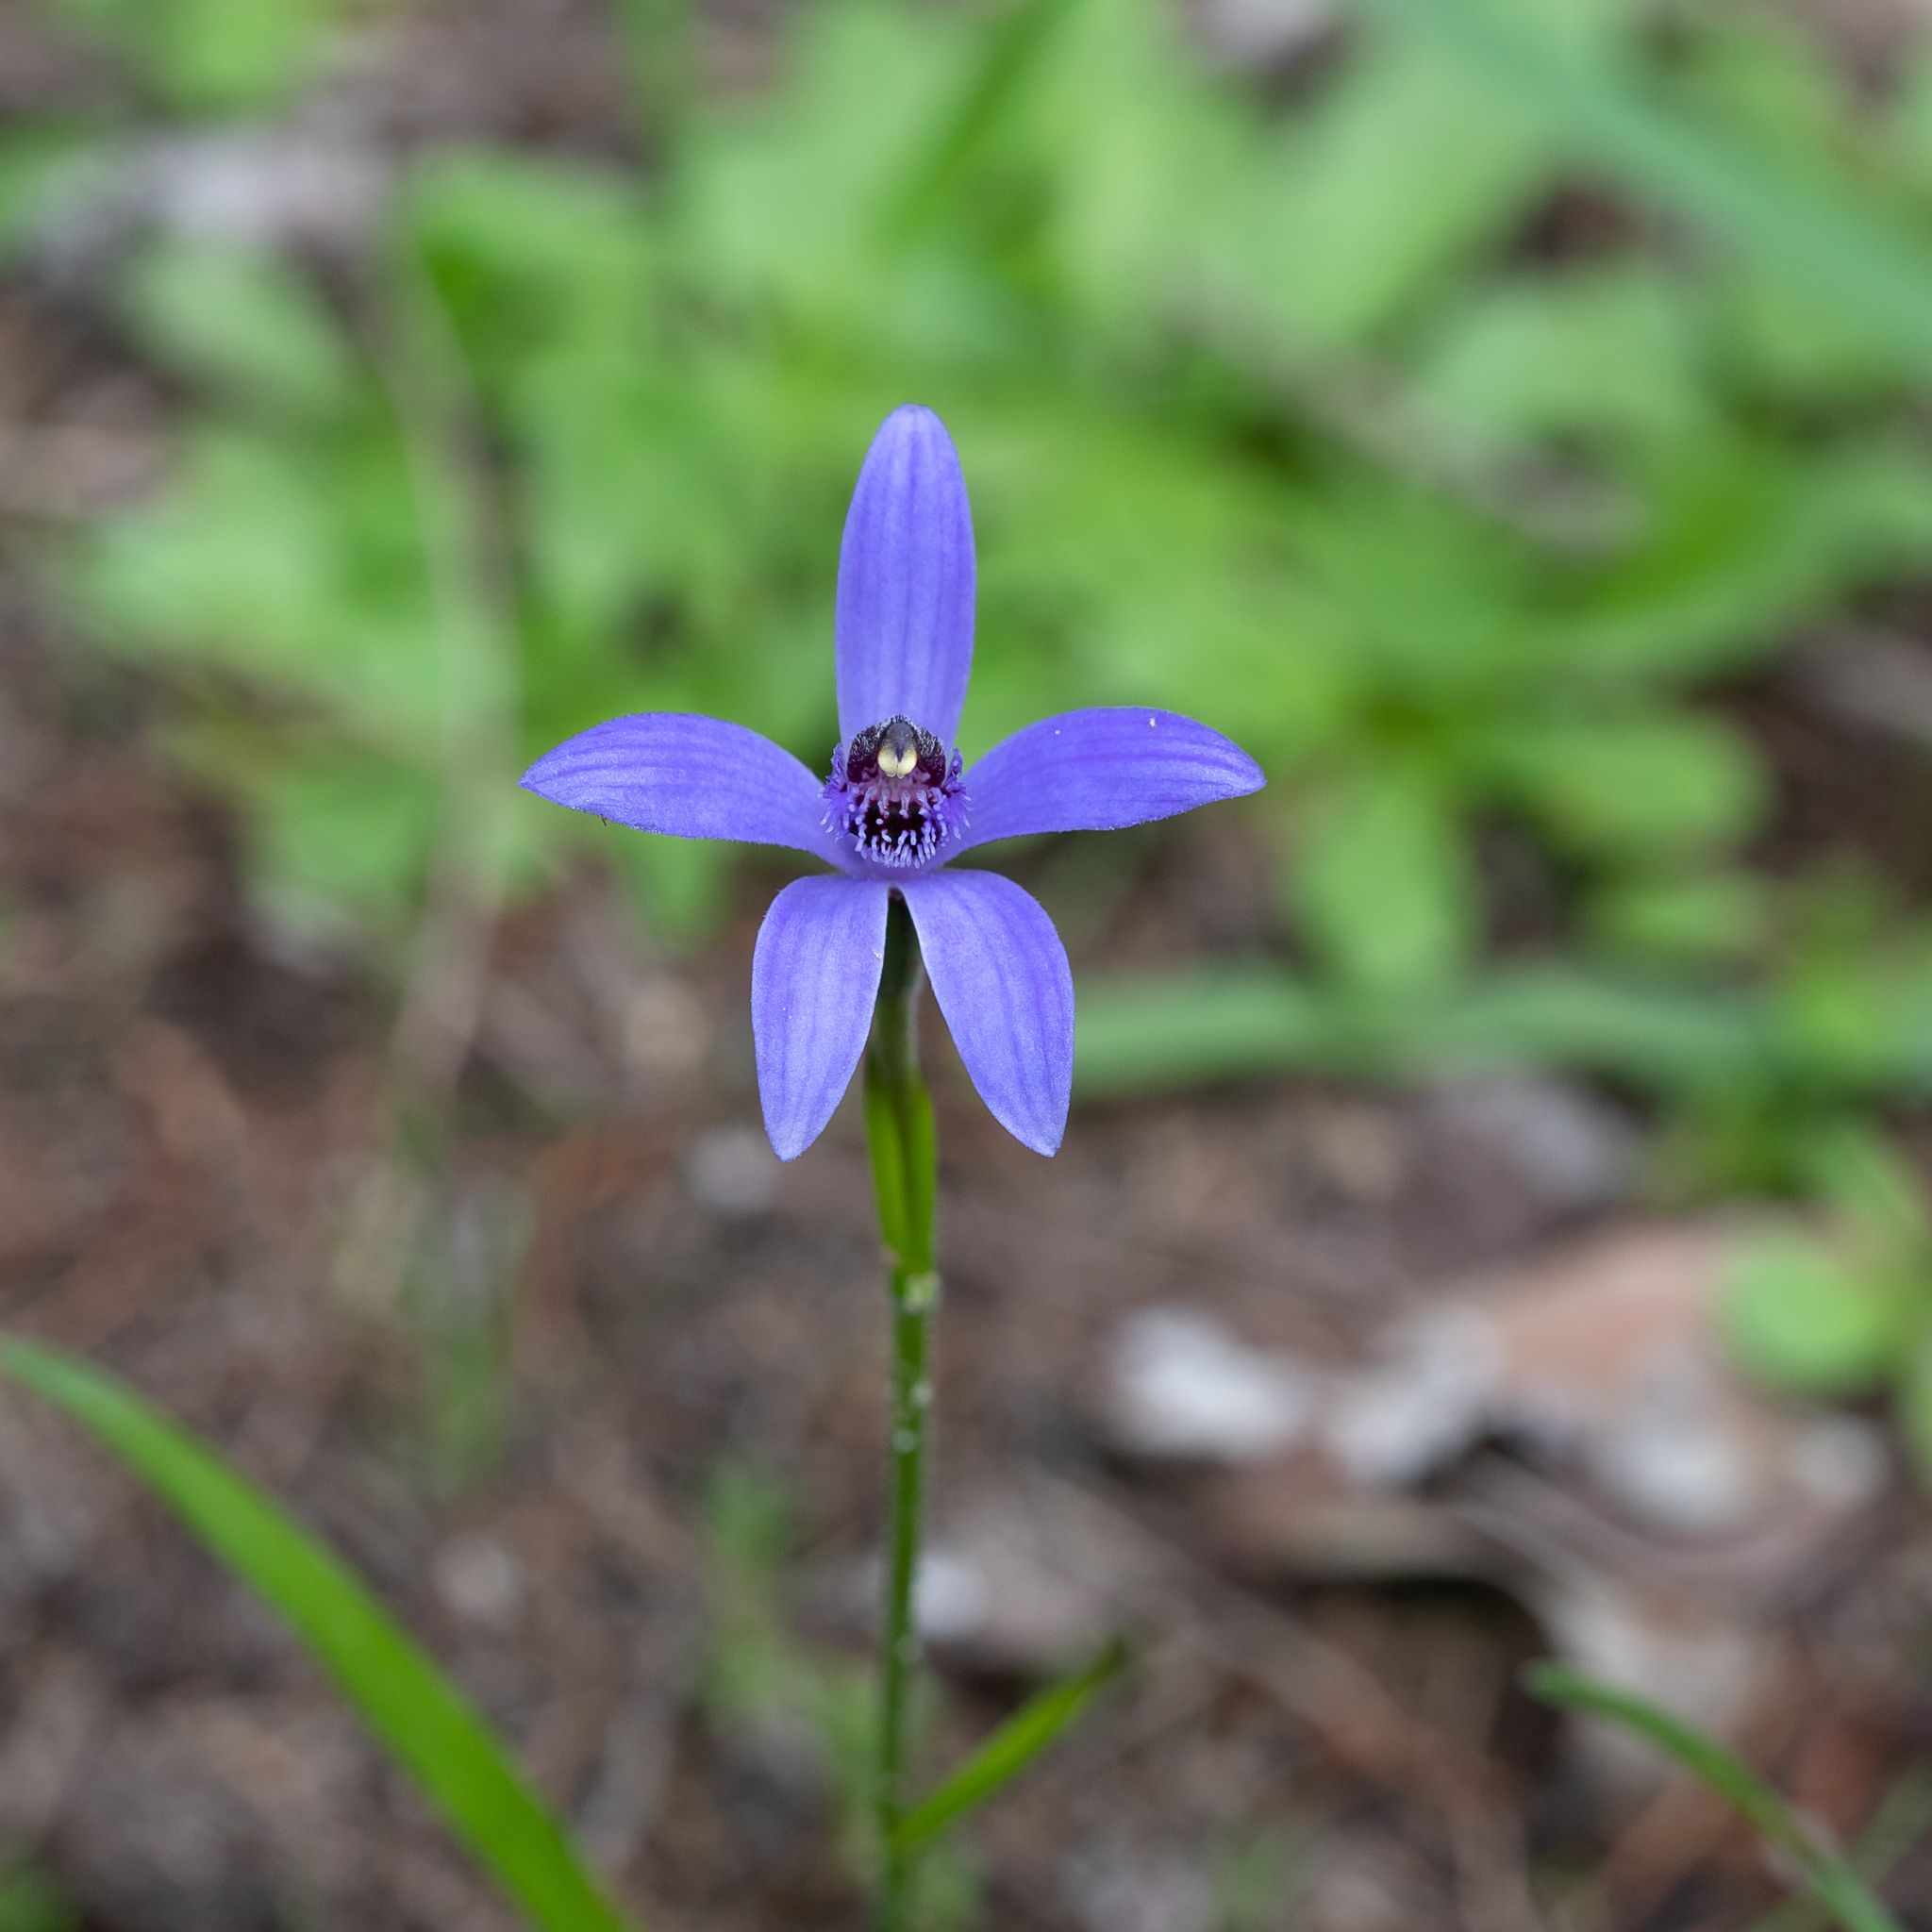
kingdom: Plantae
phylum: Tracheophyta
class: Liliopsida
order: Asparagales
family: Orchidaceae
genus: Pheladenia
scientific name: Pheladenia deformis
